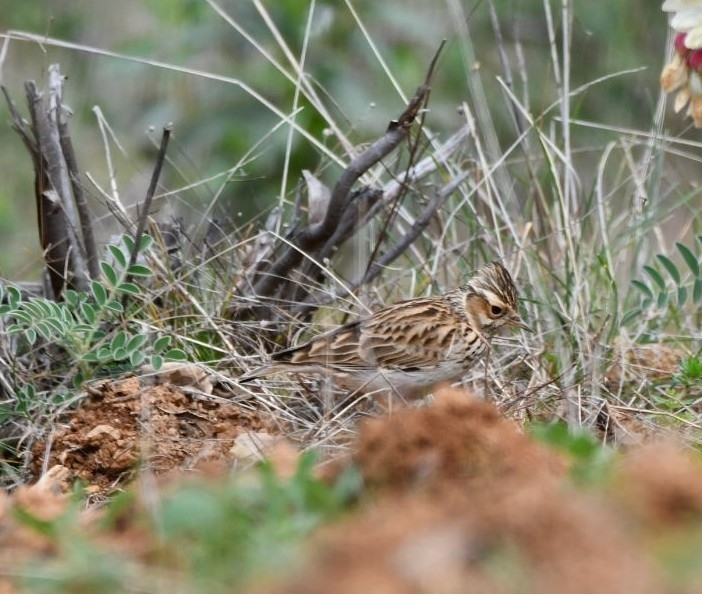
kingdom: Animalia
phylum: Chordata
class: Aves
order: Passeriformes
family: Alaudidae
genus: Lullula
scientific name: Lullula arborea
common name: Woodlark
